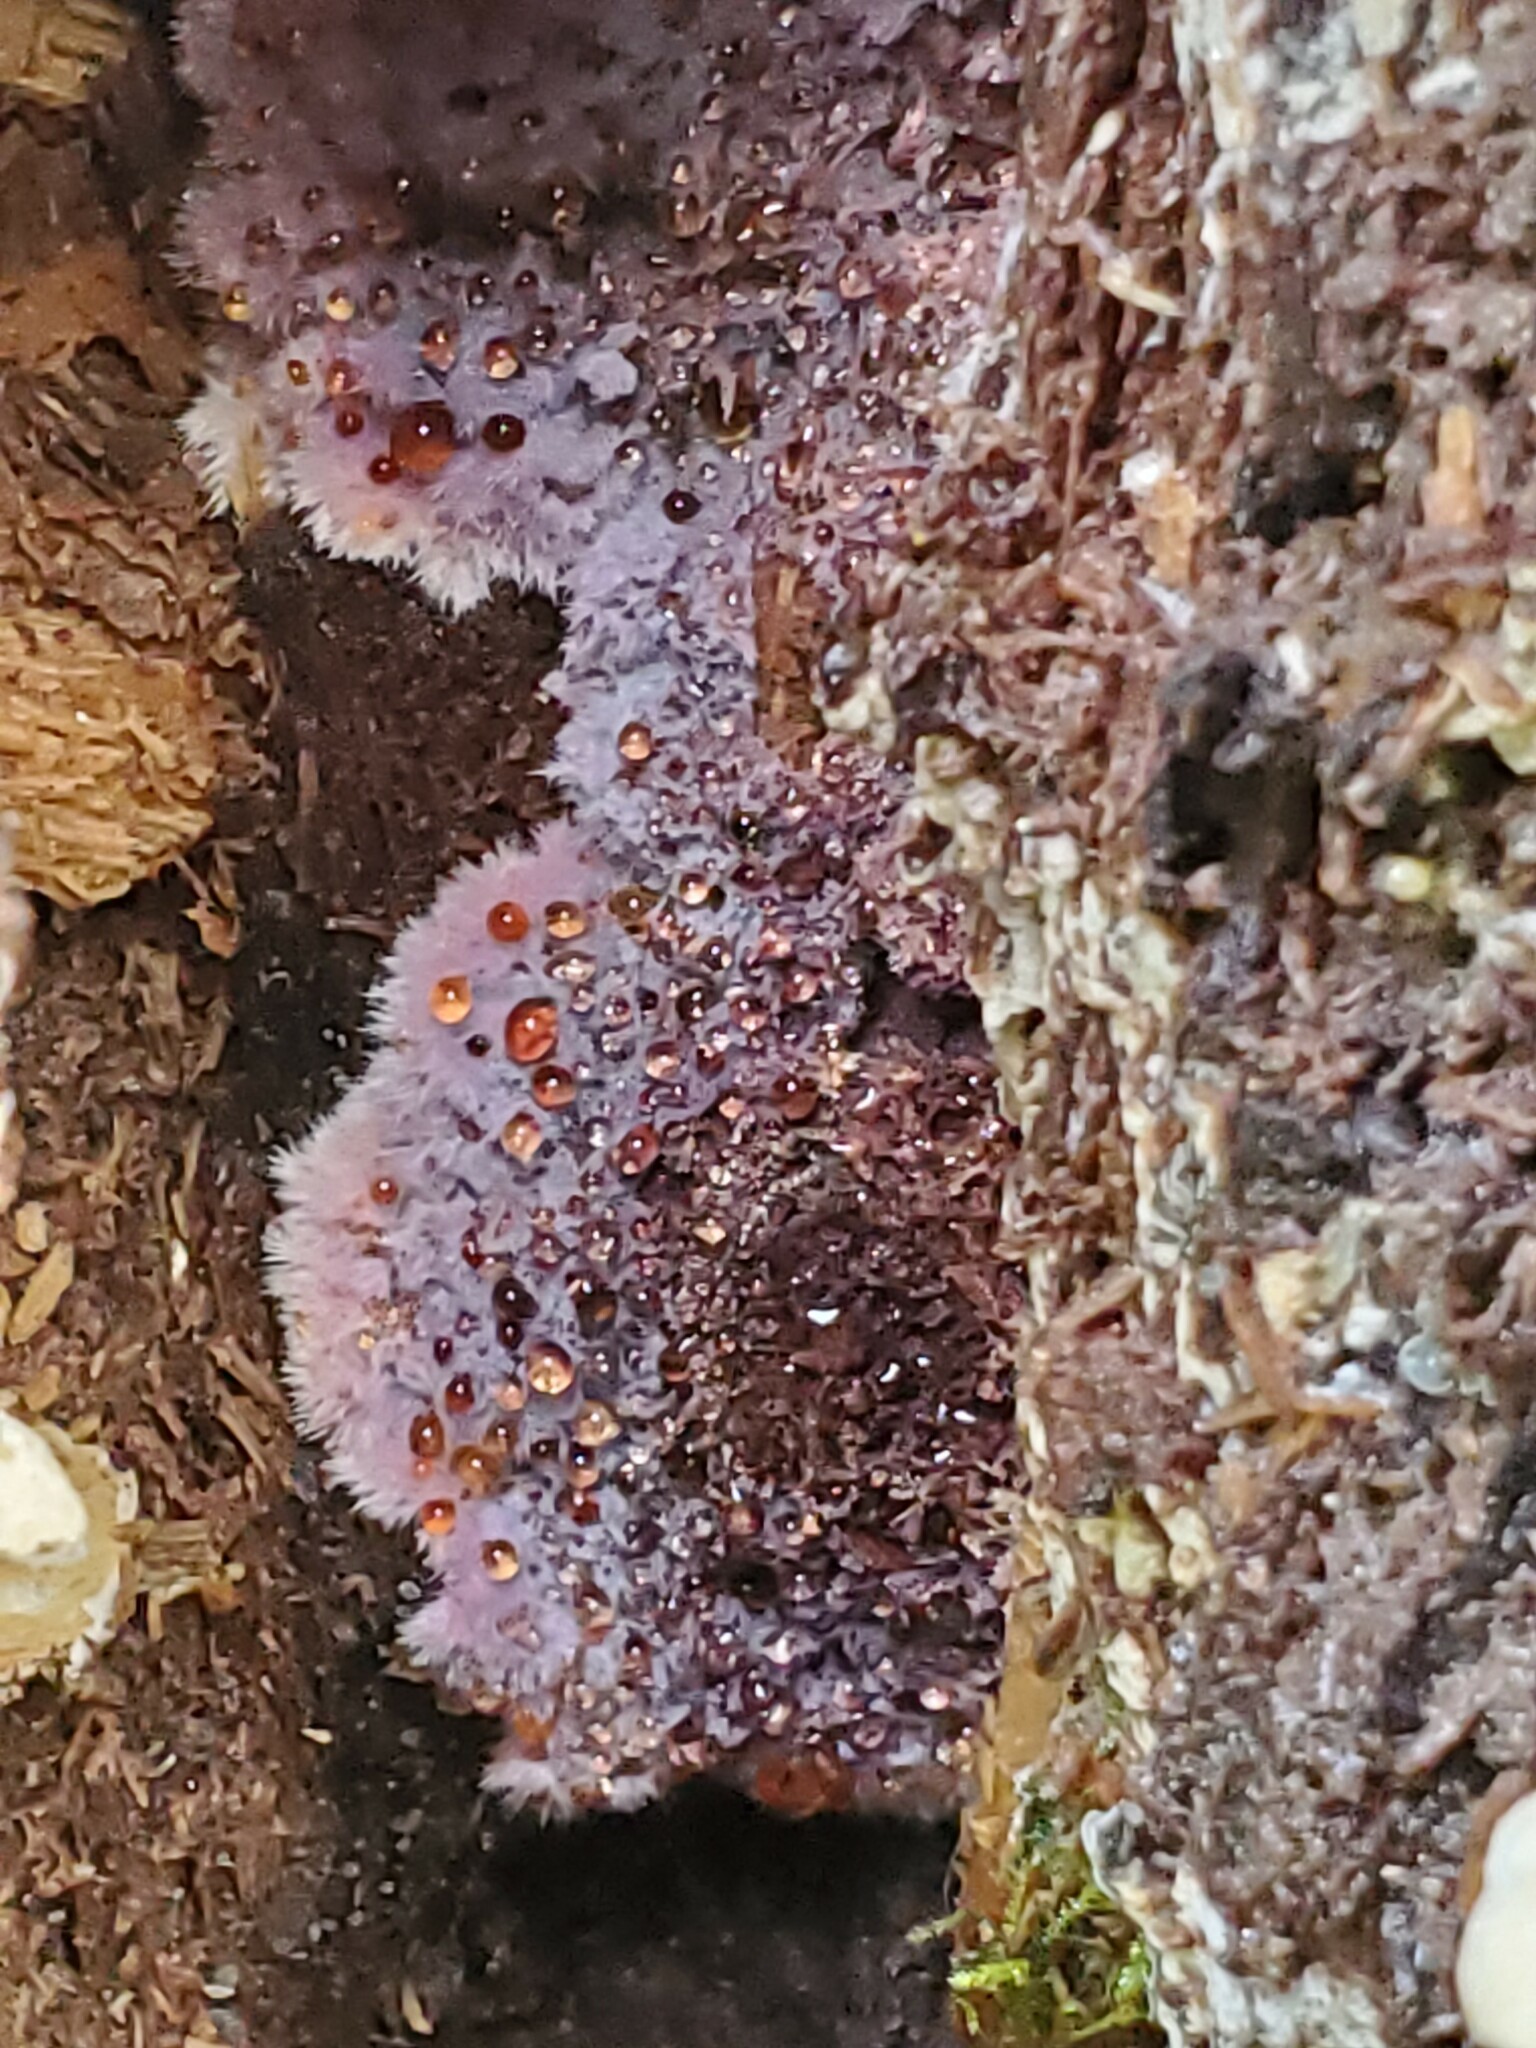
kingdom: Fungi
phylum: Basidiomycota
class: Agaricomycetes
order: Corticiales
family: Punctulariaceae
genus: Punctularia
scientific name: Punctularia atropurpurascens
